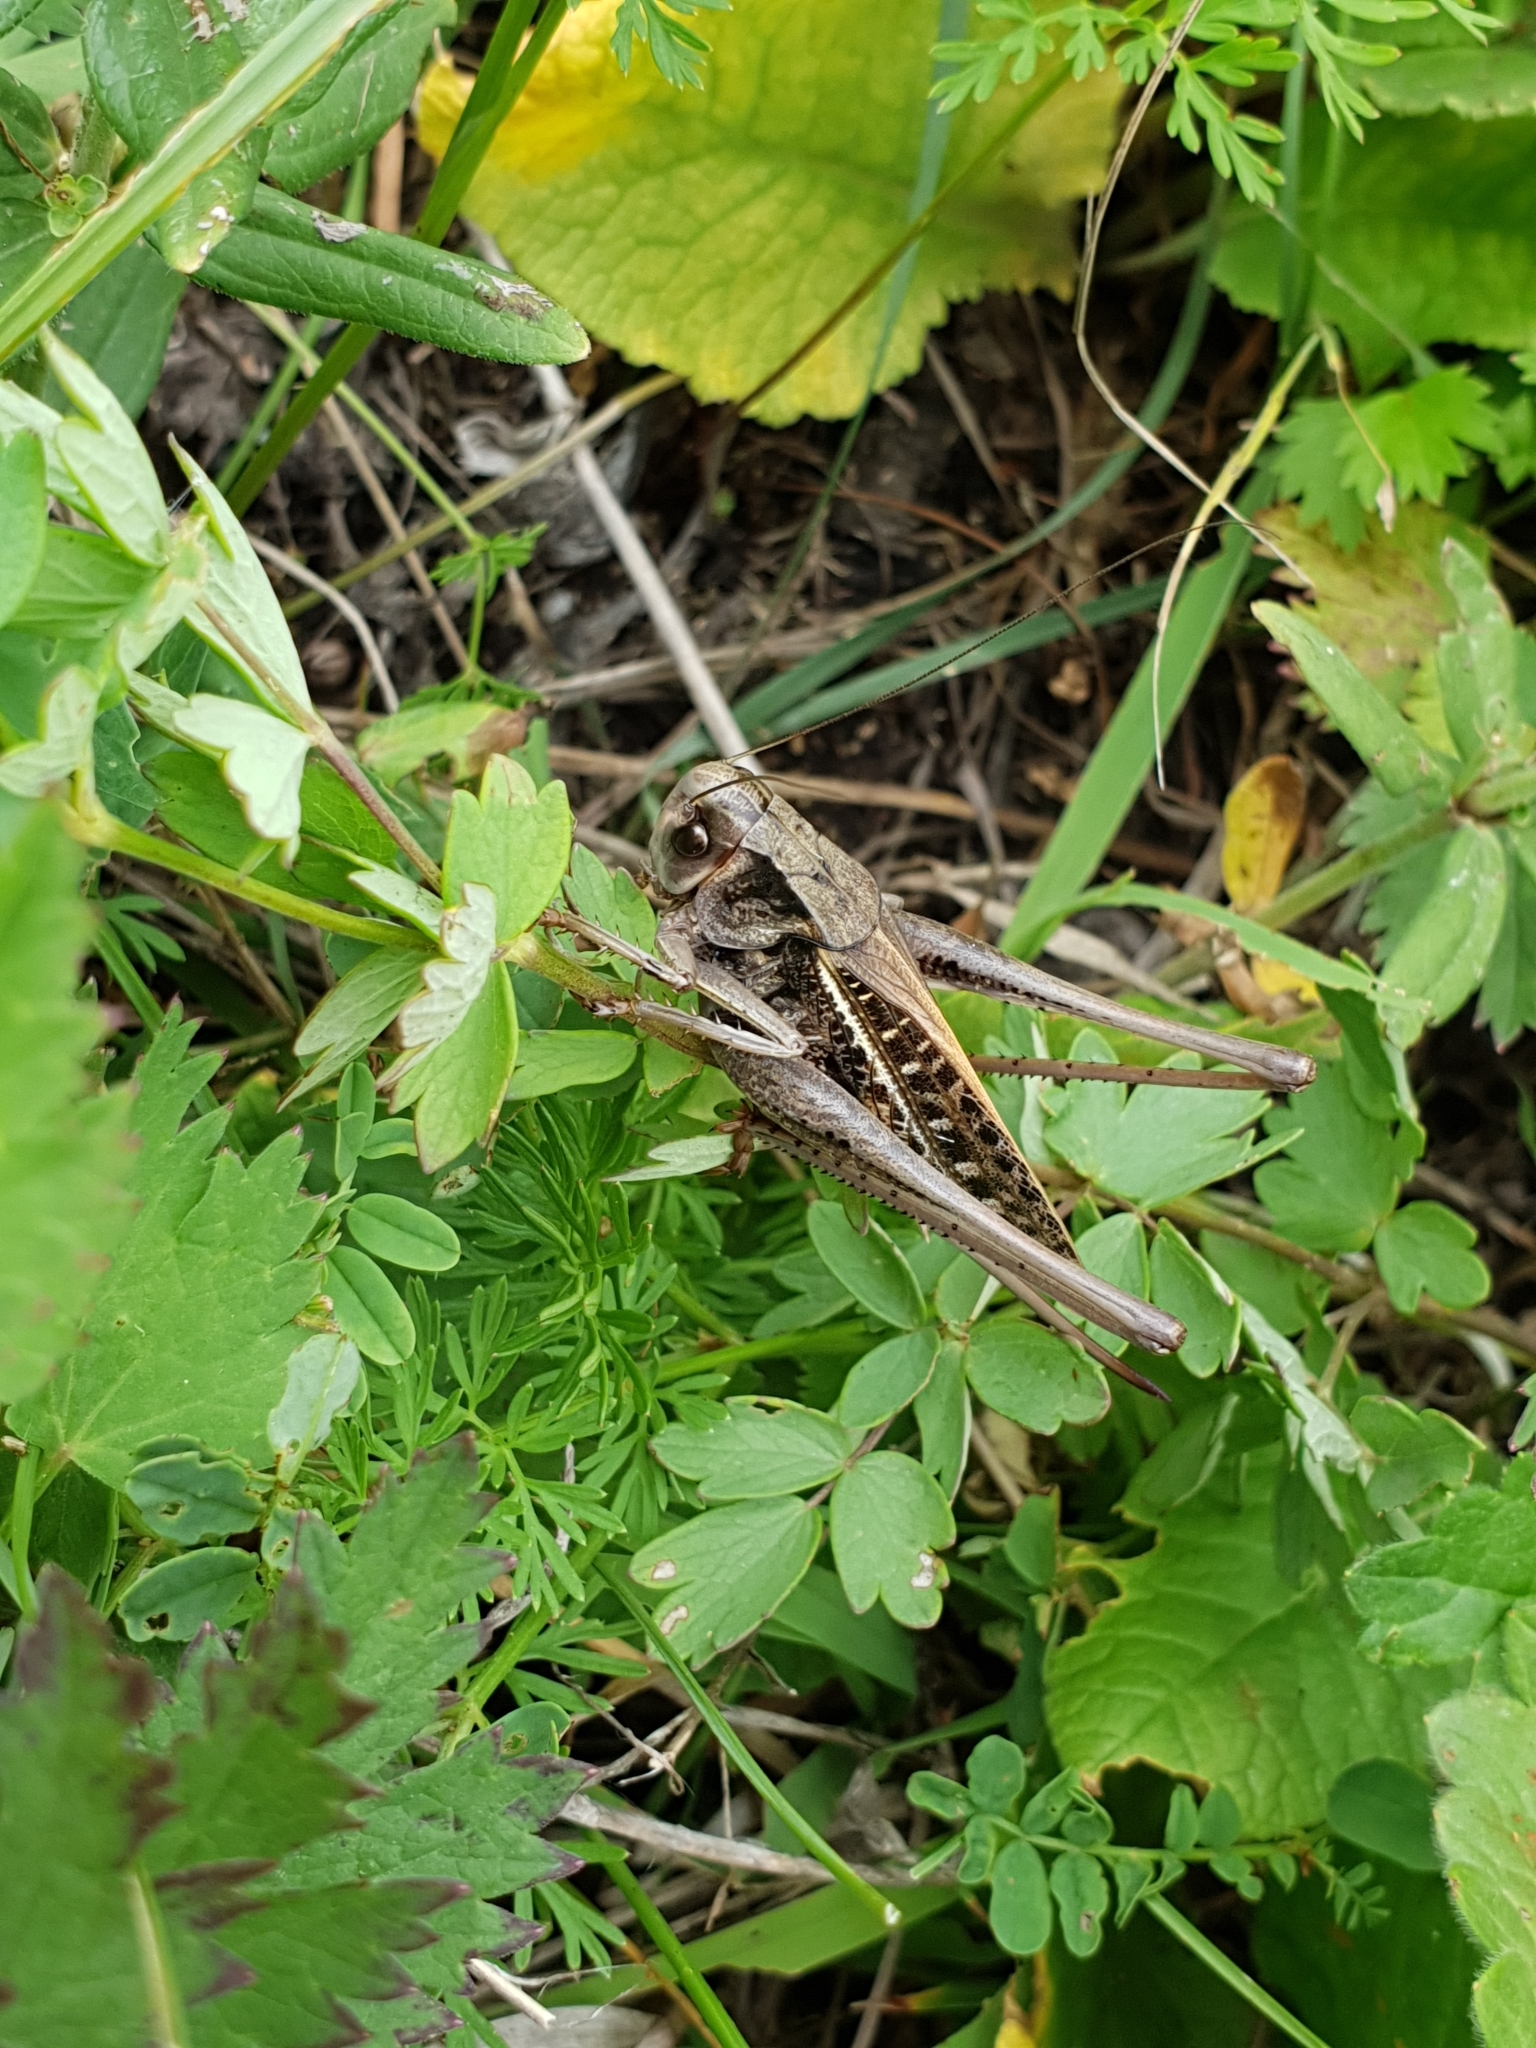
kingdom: Animalia
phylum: Arthropoda
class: Insecta
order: Orthoptera
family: Tettigoniidae
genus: Decticus
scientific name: Decticus verrucivorus
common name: Wart-biter
